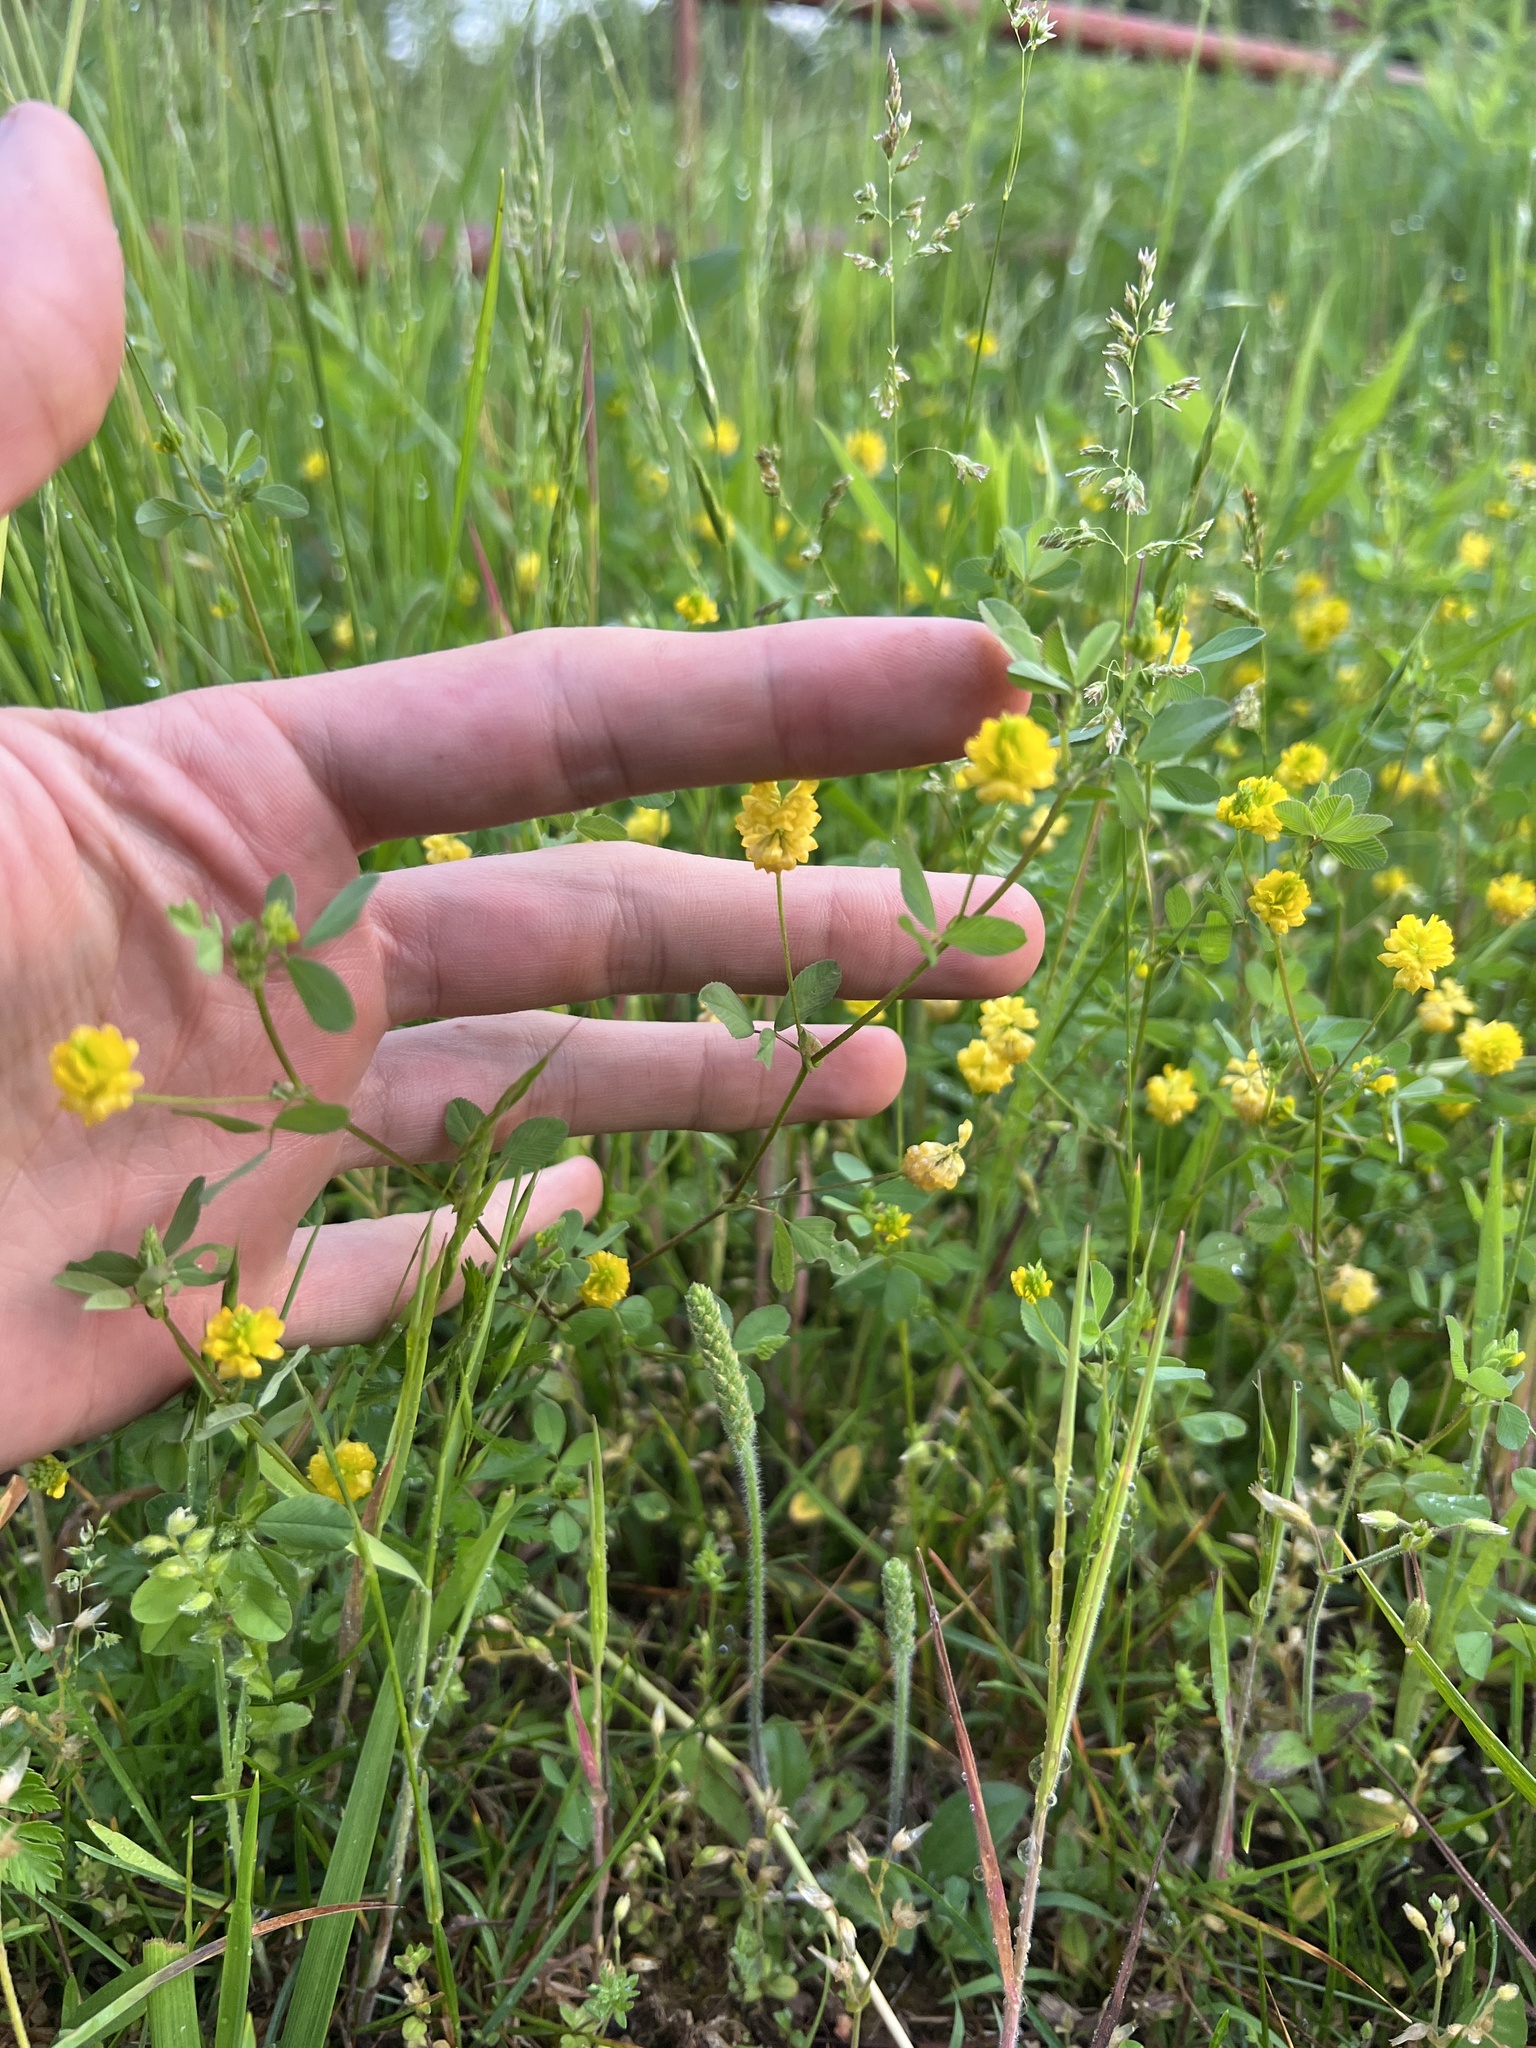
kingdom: Plantae
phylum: Tracheophyta
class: Magnoliopsida
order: Fabales
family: Fabaceae
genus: Trifolium
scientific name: Trifolium campestre
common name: Field clover
